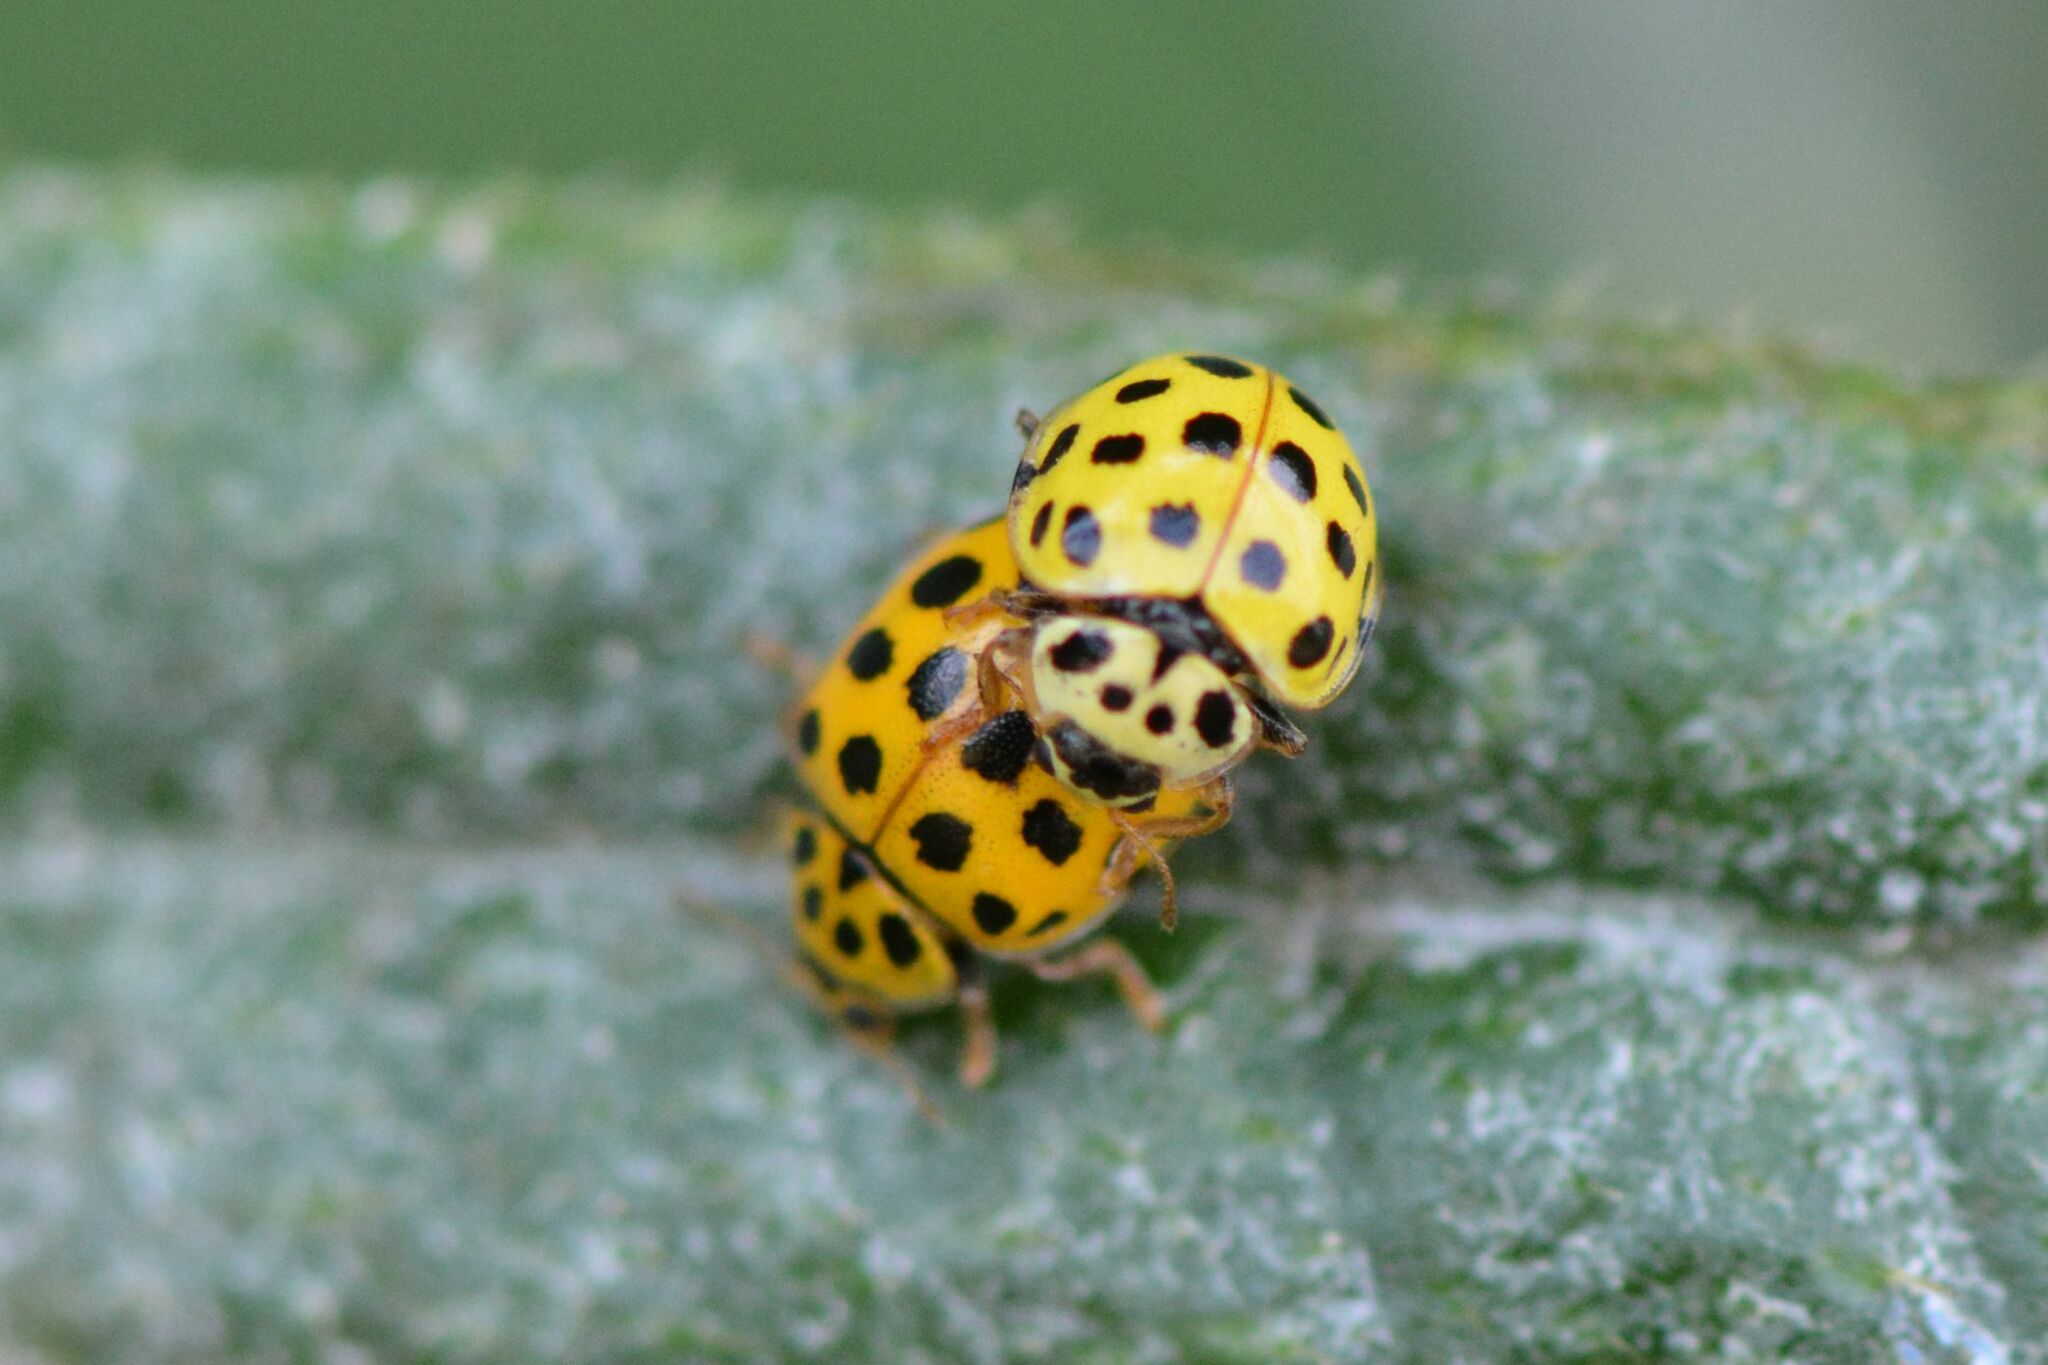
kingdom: Animalia
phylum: Arthropoda
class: Insecta
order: Coleoptera
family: Coccinellidae
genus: Psyllobora
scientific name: Psyllobora vigintiduopunctata
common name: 22-spot ladybird
